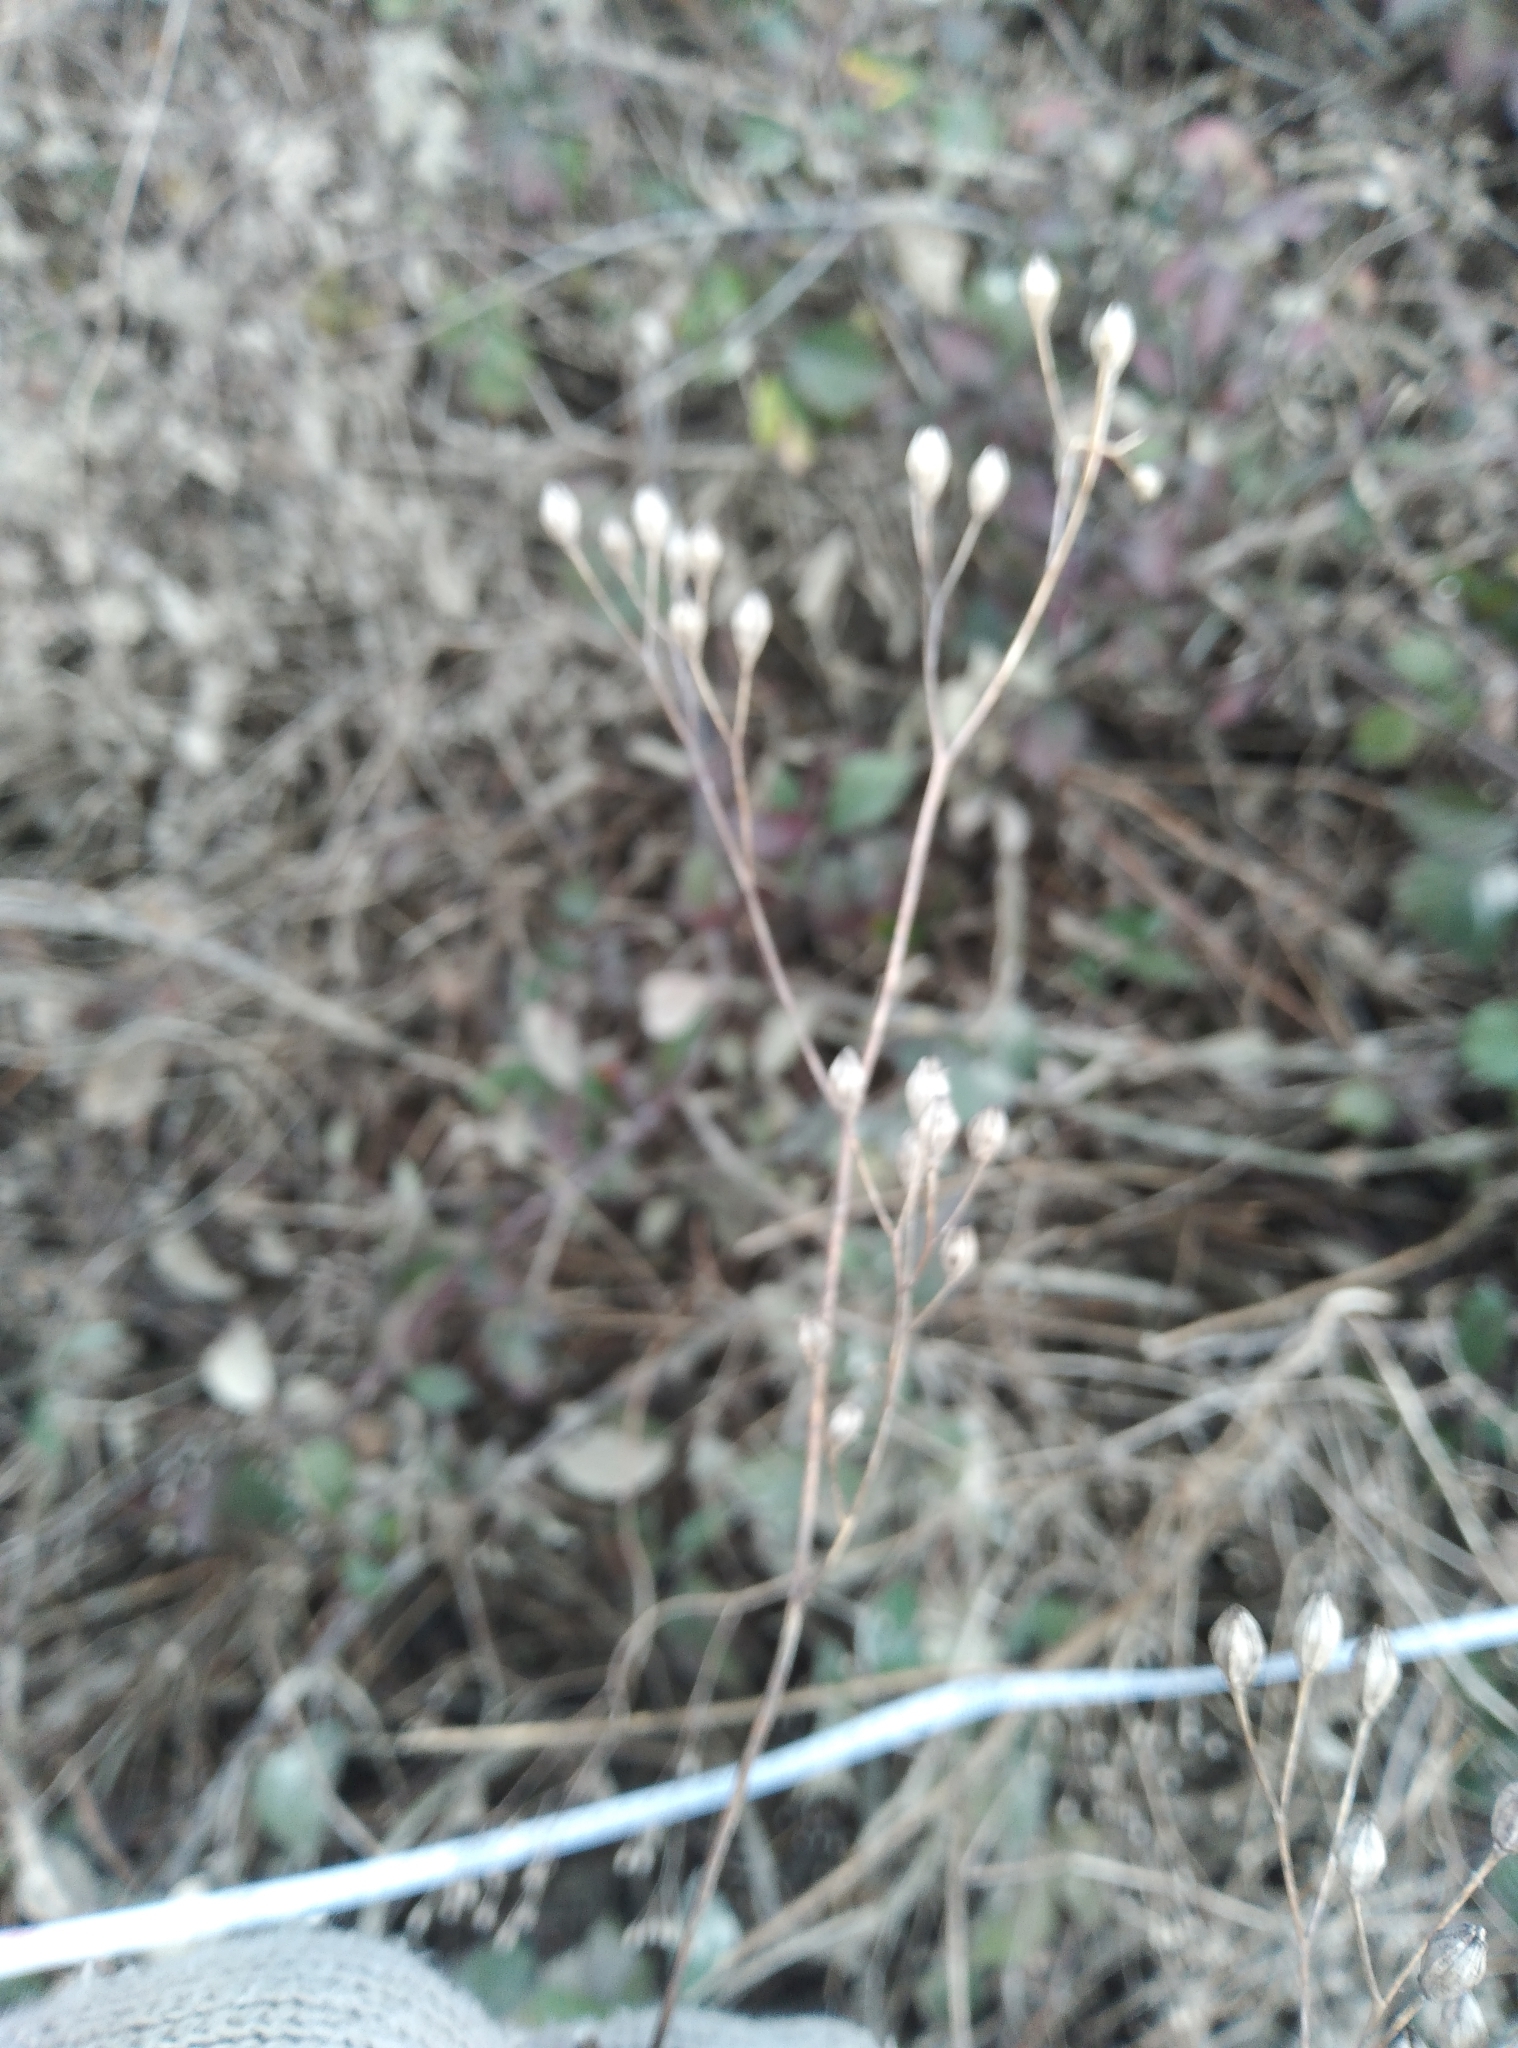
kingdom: Plantae
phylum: Tracheophyta
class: Magnoliopsida
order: Asterales
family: Asteraceae
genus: Lapsana
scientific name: Lapsana communis
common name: Nipplewort
